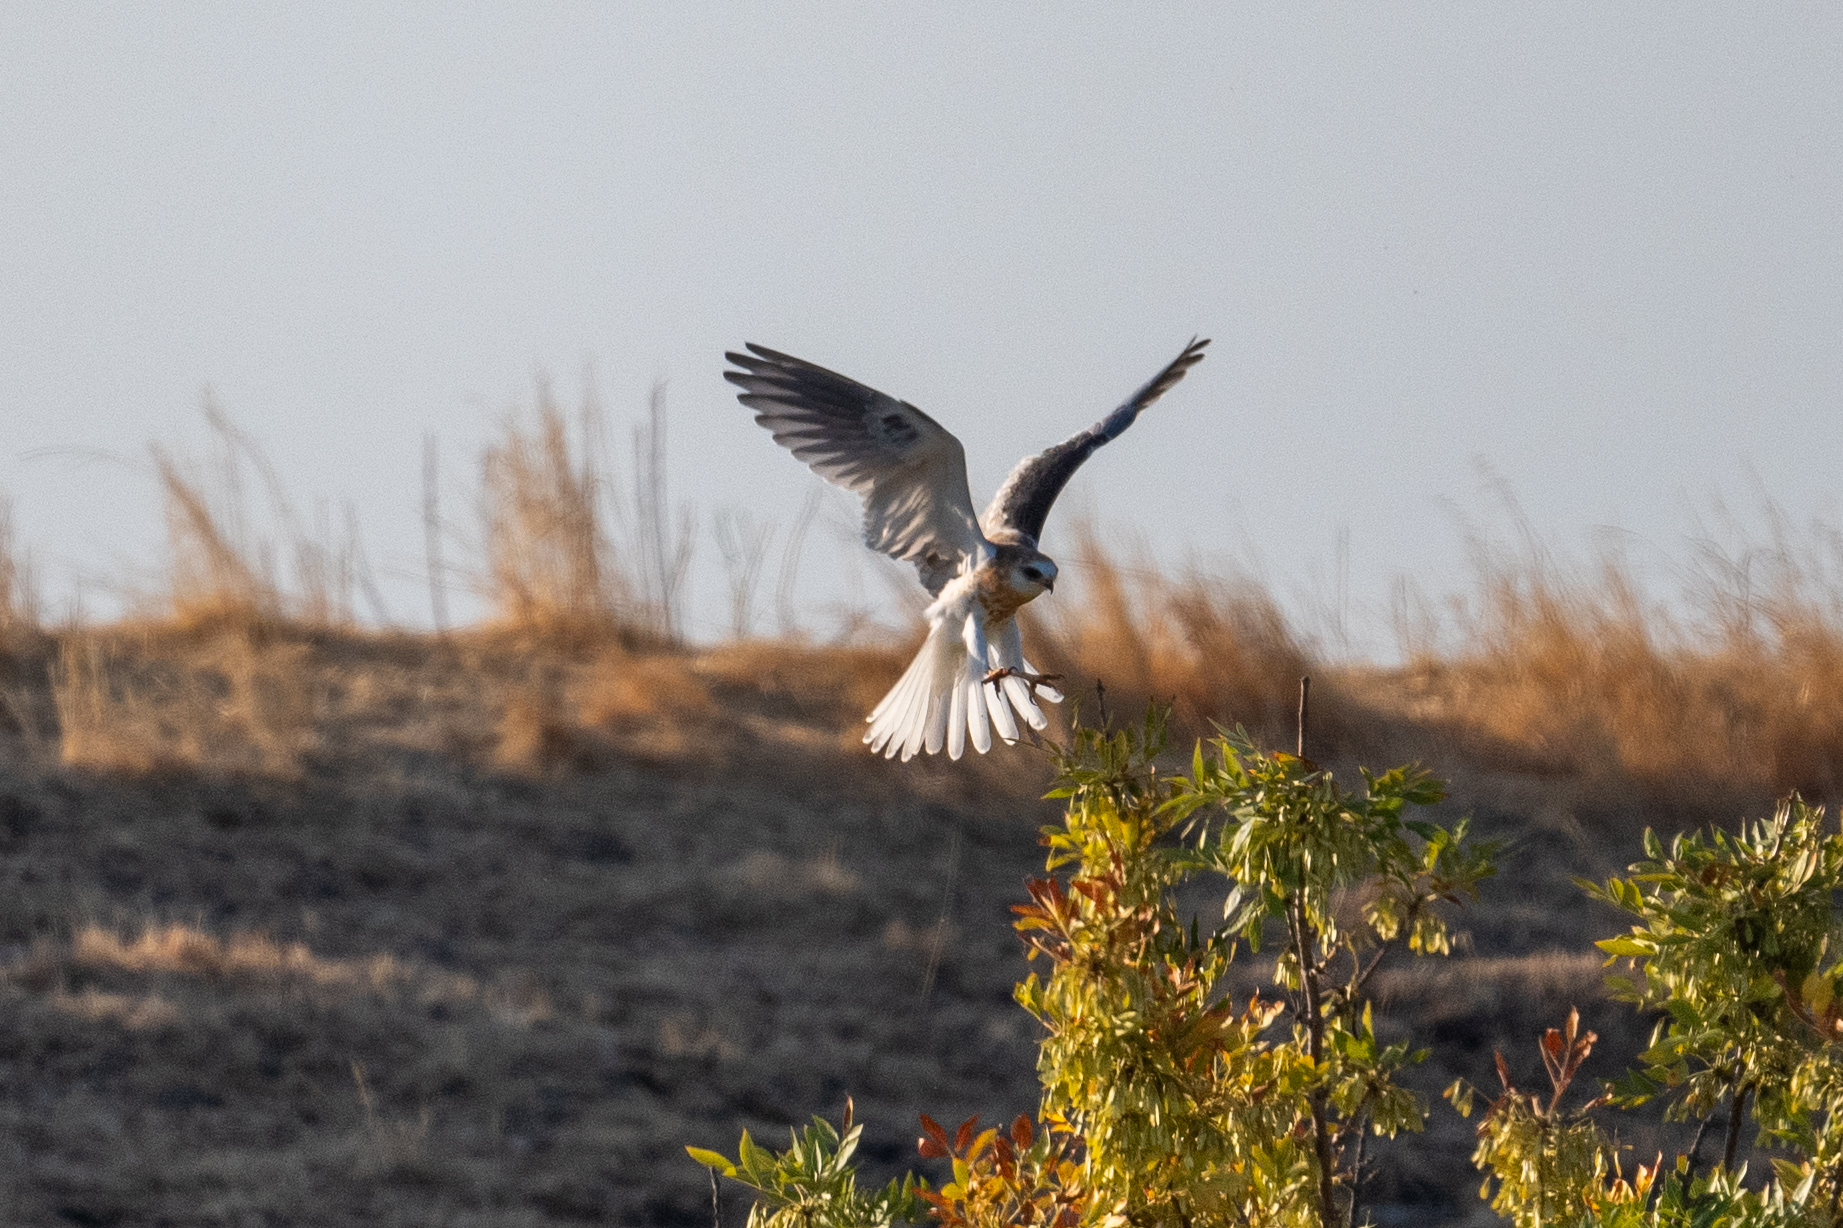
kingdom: Animalia
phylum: Chordata
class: Aves
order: Accipitriformes
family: Accipitridae
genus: Elanus
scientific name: Elanus leucurus
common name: White-tailed kite
